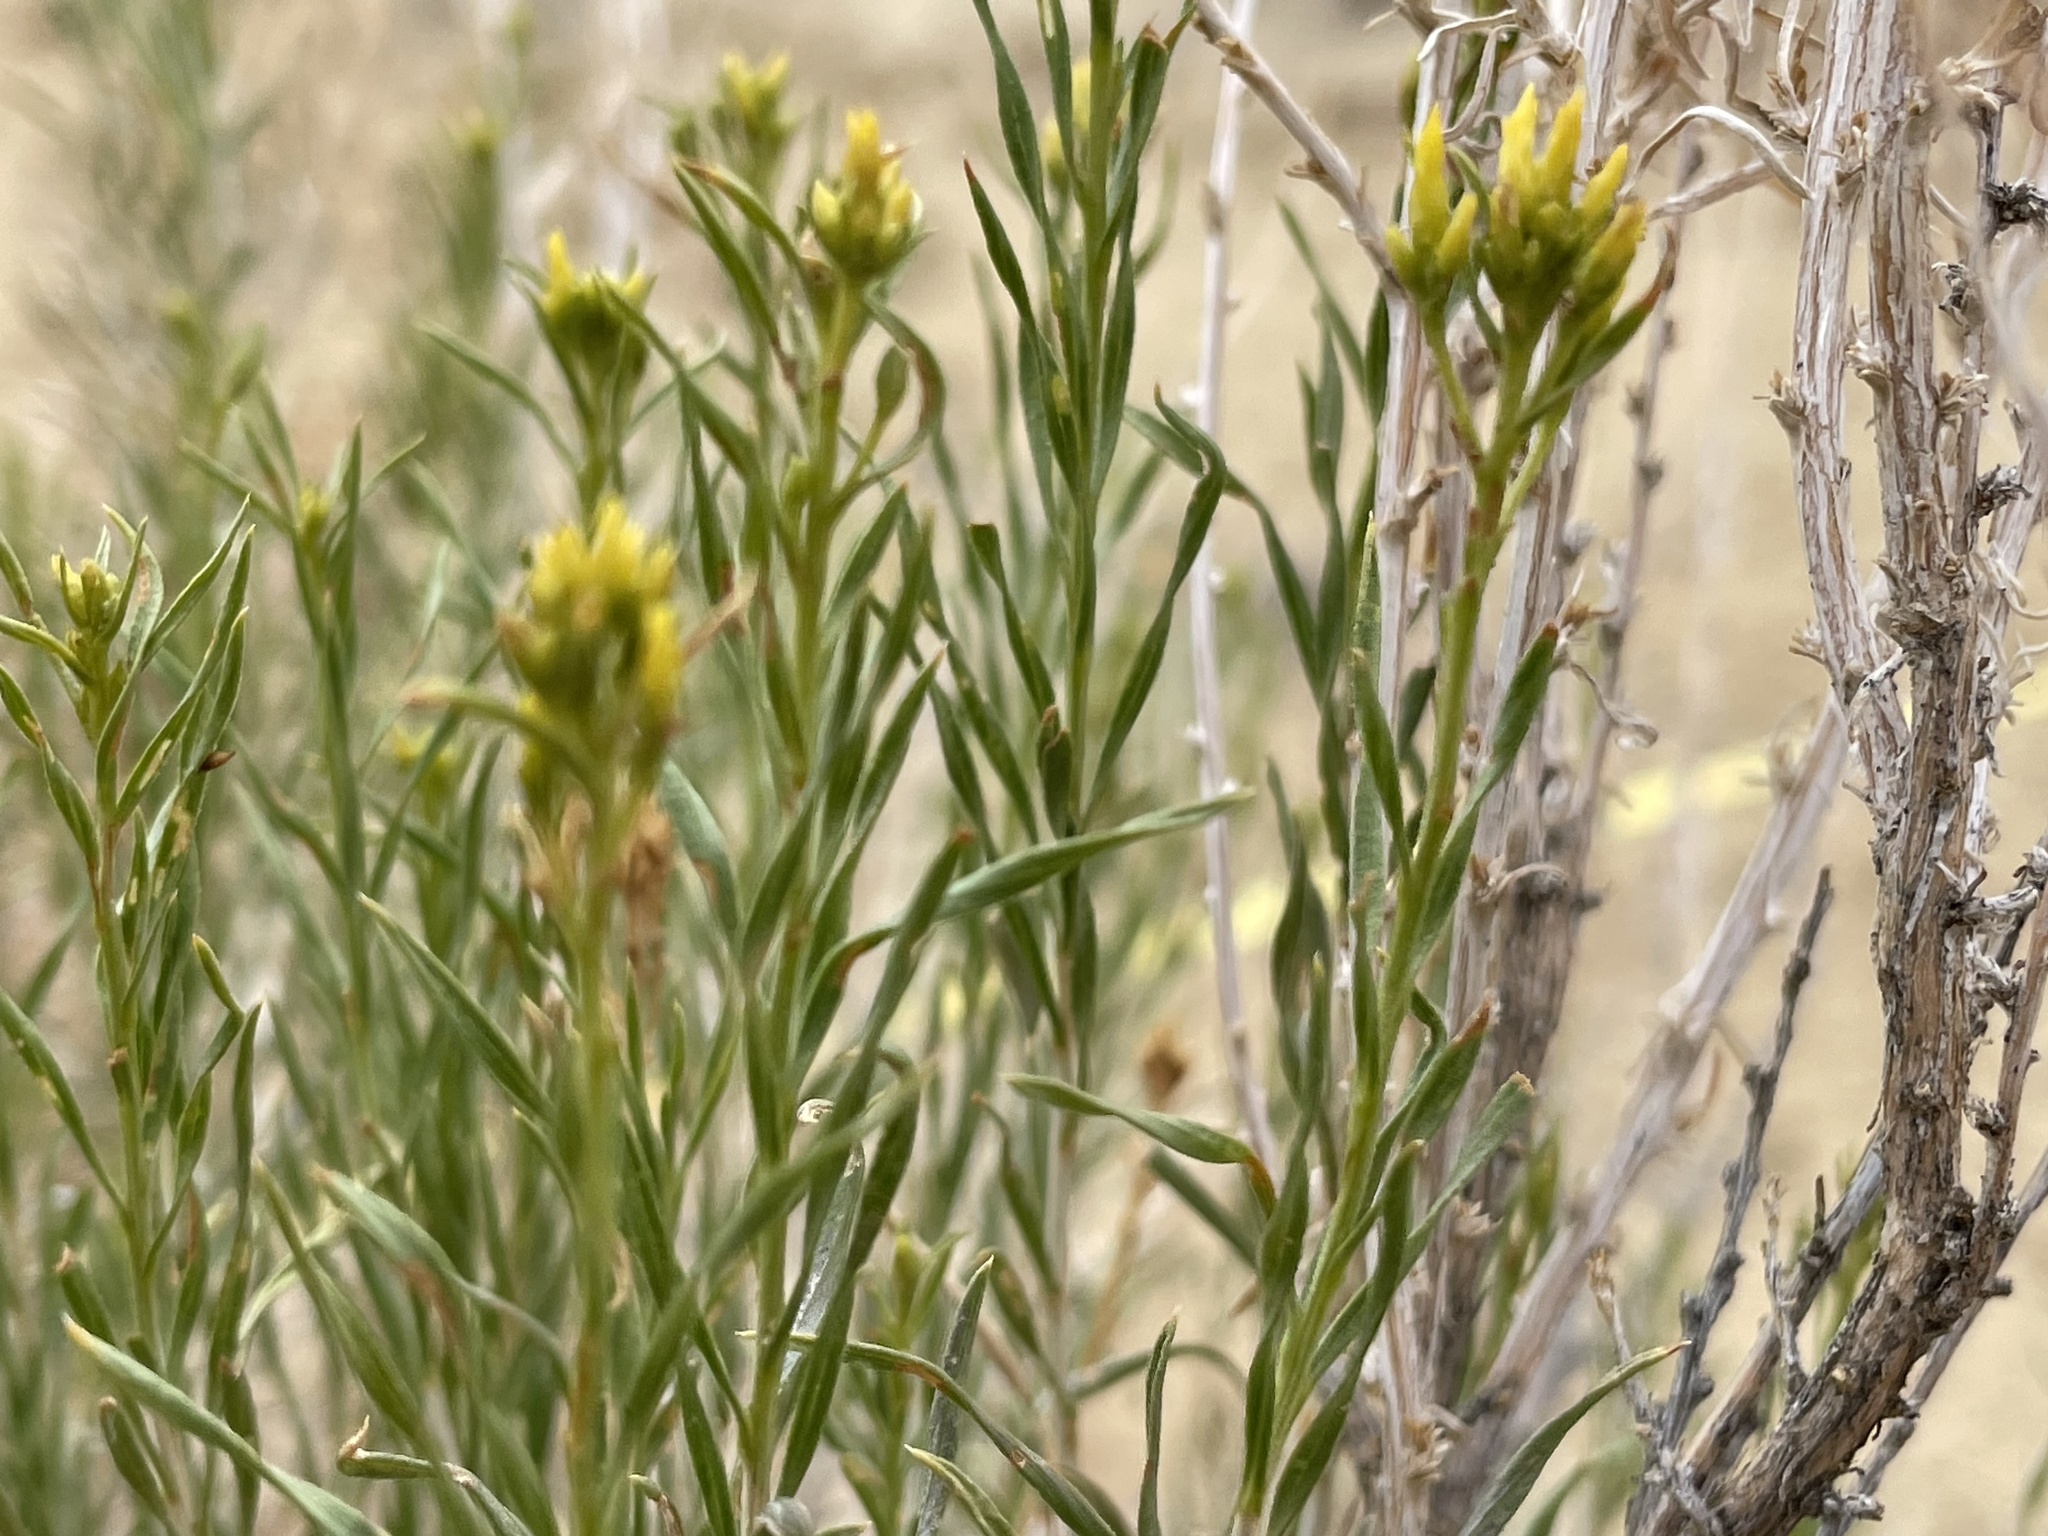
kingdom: Plantae
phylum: Tracheophyta
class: Magnoliopsida
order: Asterales
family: Asteraceae
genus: Chrysothamnus
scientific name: Chrysothamnus greenei
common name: Greene's rabbitbrush
